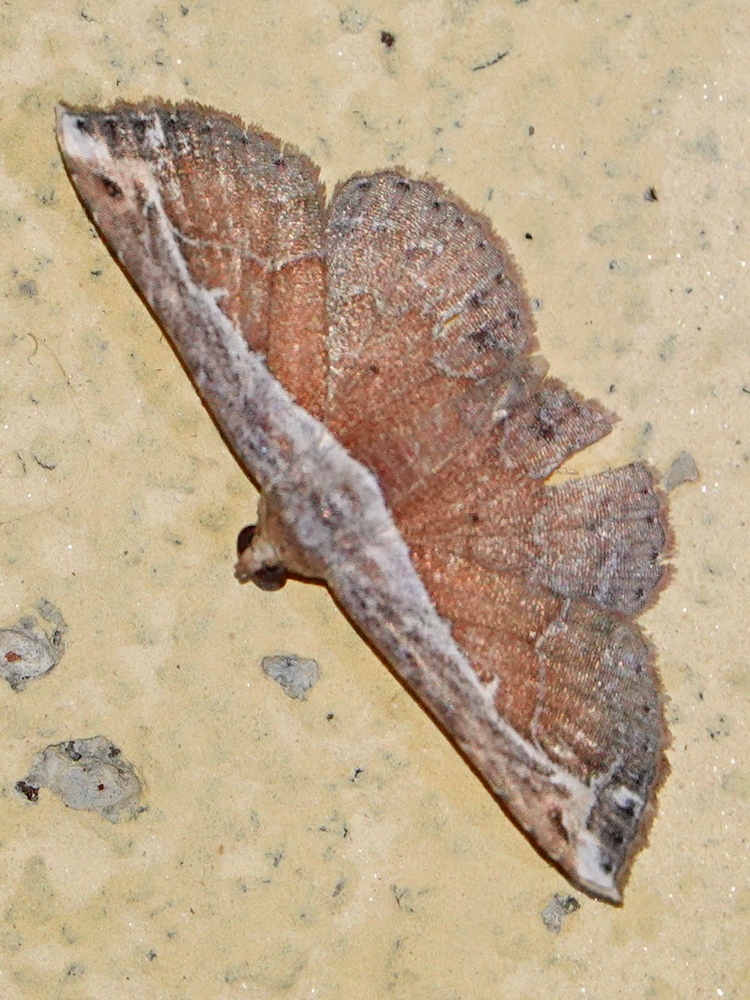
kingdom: Animalia
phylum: Arthropoda
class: Insecta
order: Lepidoptera
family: Erebidae
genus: Zurobata
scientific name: Zurobata vacillans
